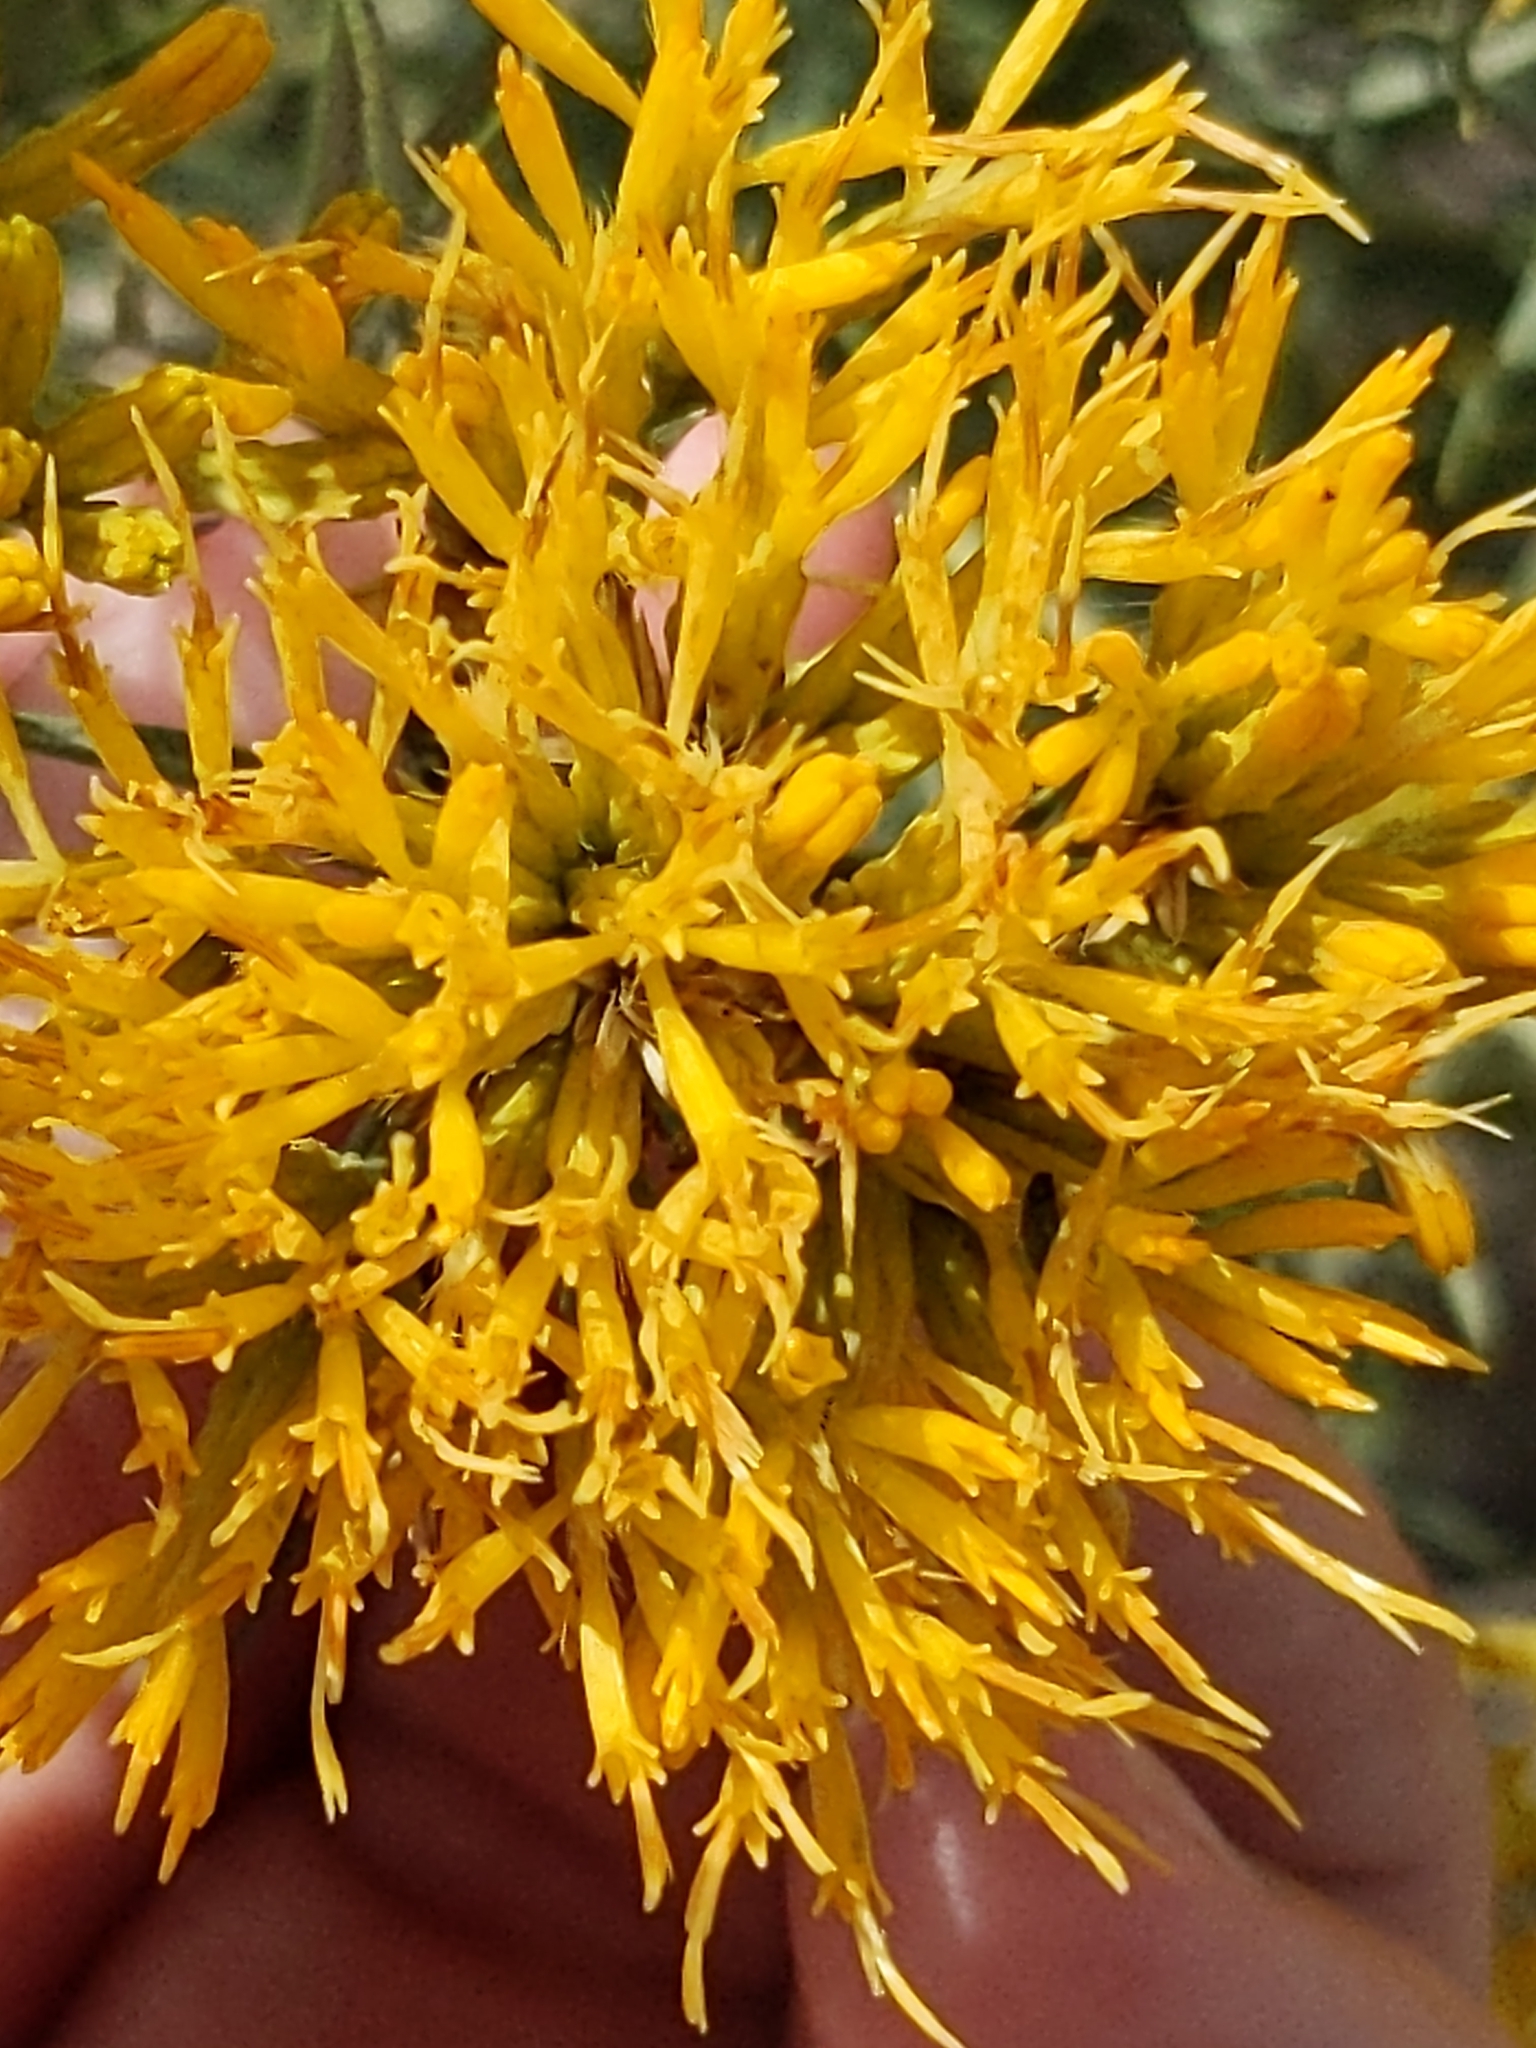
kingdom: Plantae
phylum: Tracheophyta
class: Magnoliopsida
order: Asterales
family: Asteraceae
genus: Ericameria
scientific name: Ericameria nauseosa
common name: Rubber rabbitbrush
